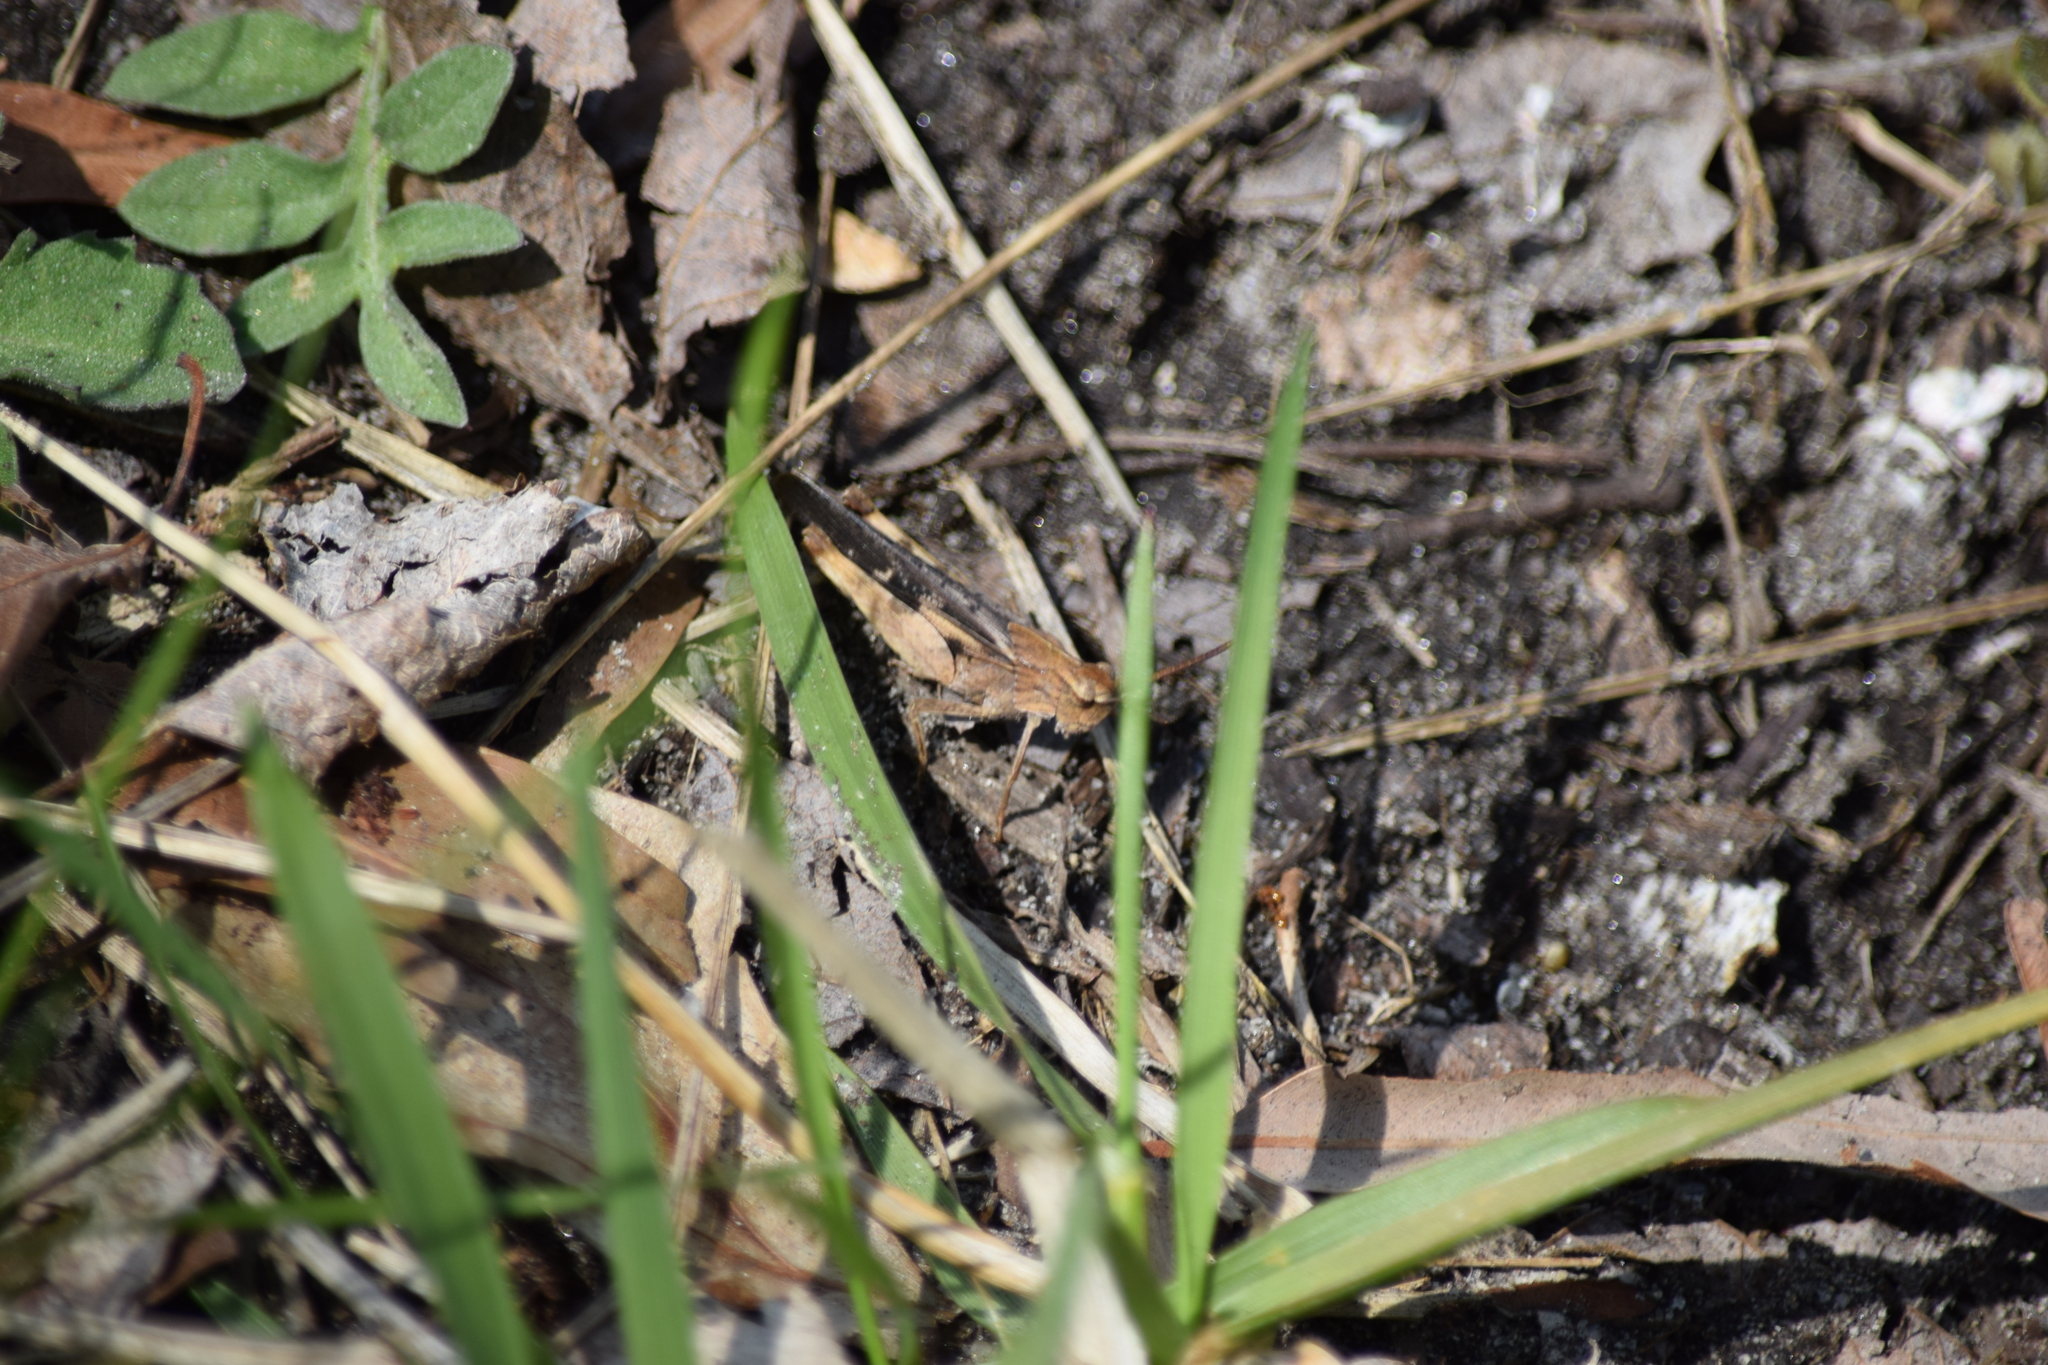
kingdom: Animalia
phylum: Arthropoda
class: Insecta
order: Orthoptera
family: Acrididae
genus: Chortophaga
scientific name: Chortophaga viridifasciata
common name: Green-striped grasshopper
